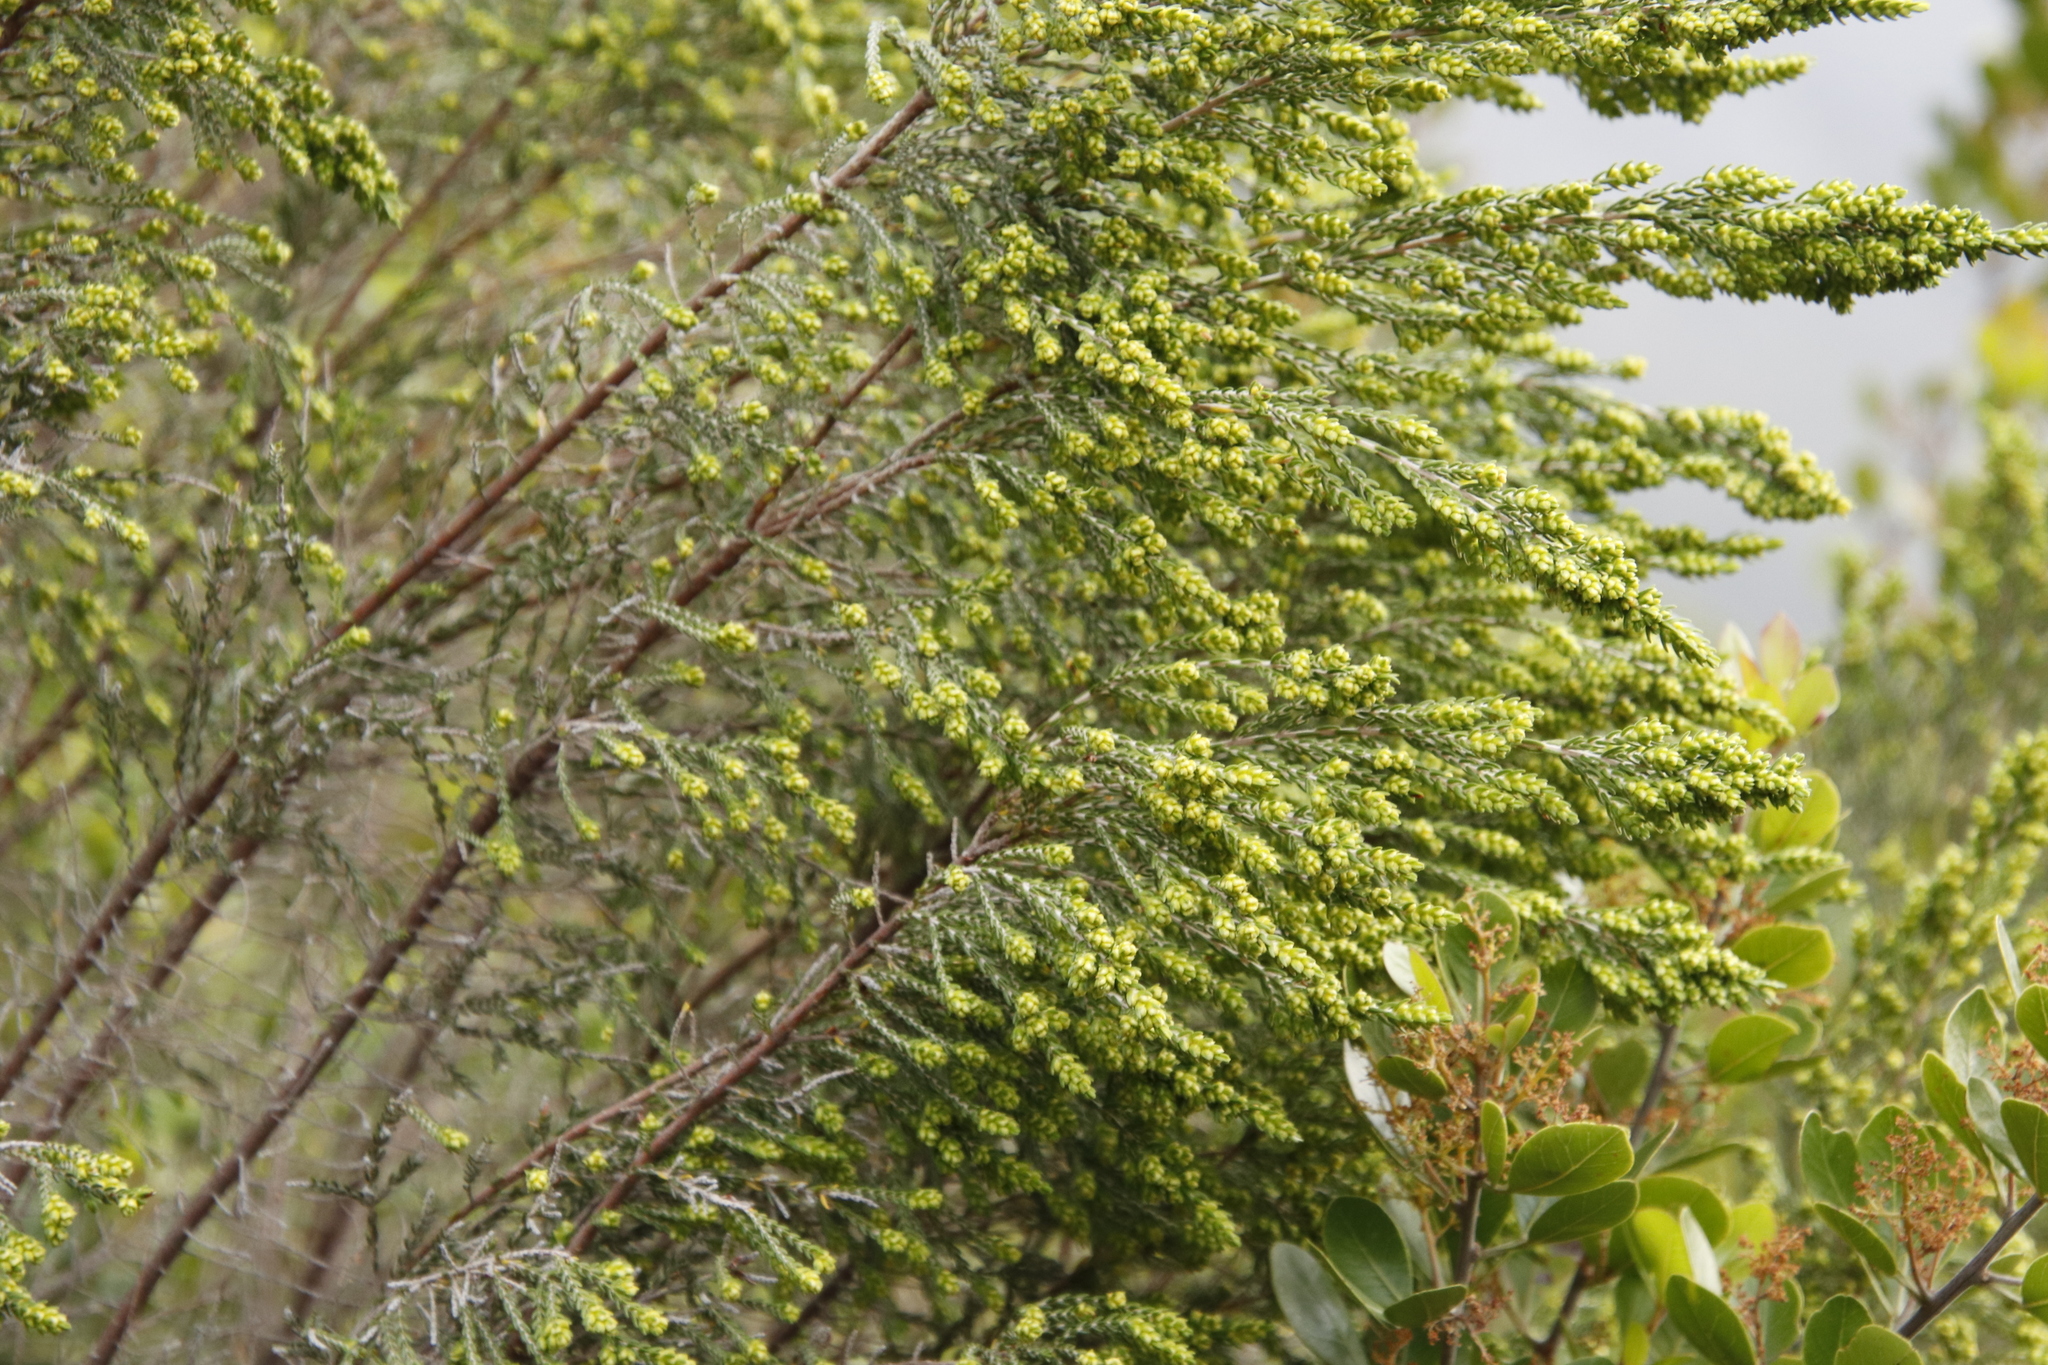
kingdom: Plantae
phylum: Tracheophyta
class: Magnoliopsida
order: Malvales
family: Thymelaeaceae
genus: Passerina
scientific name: Passerina corymbosa
